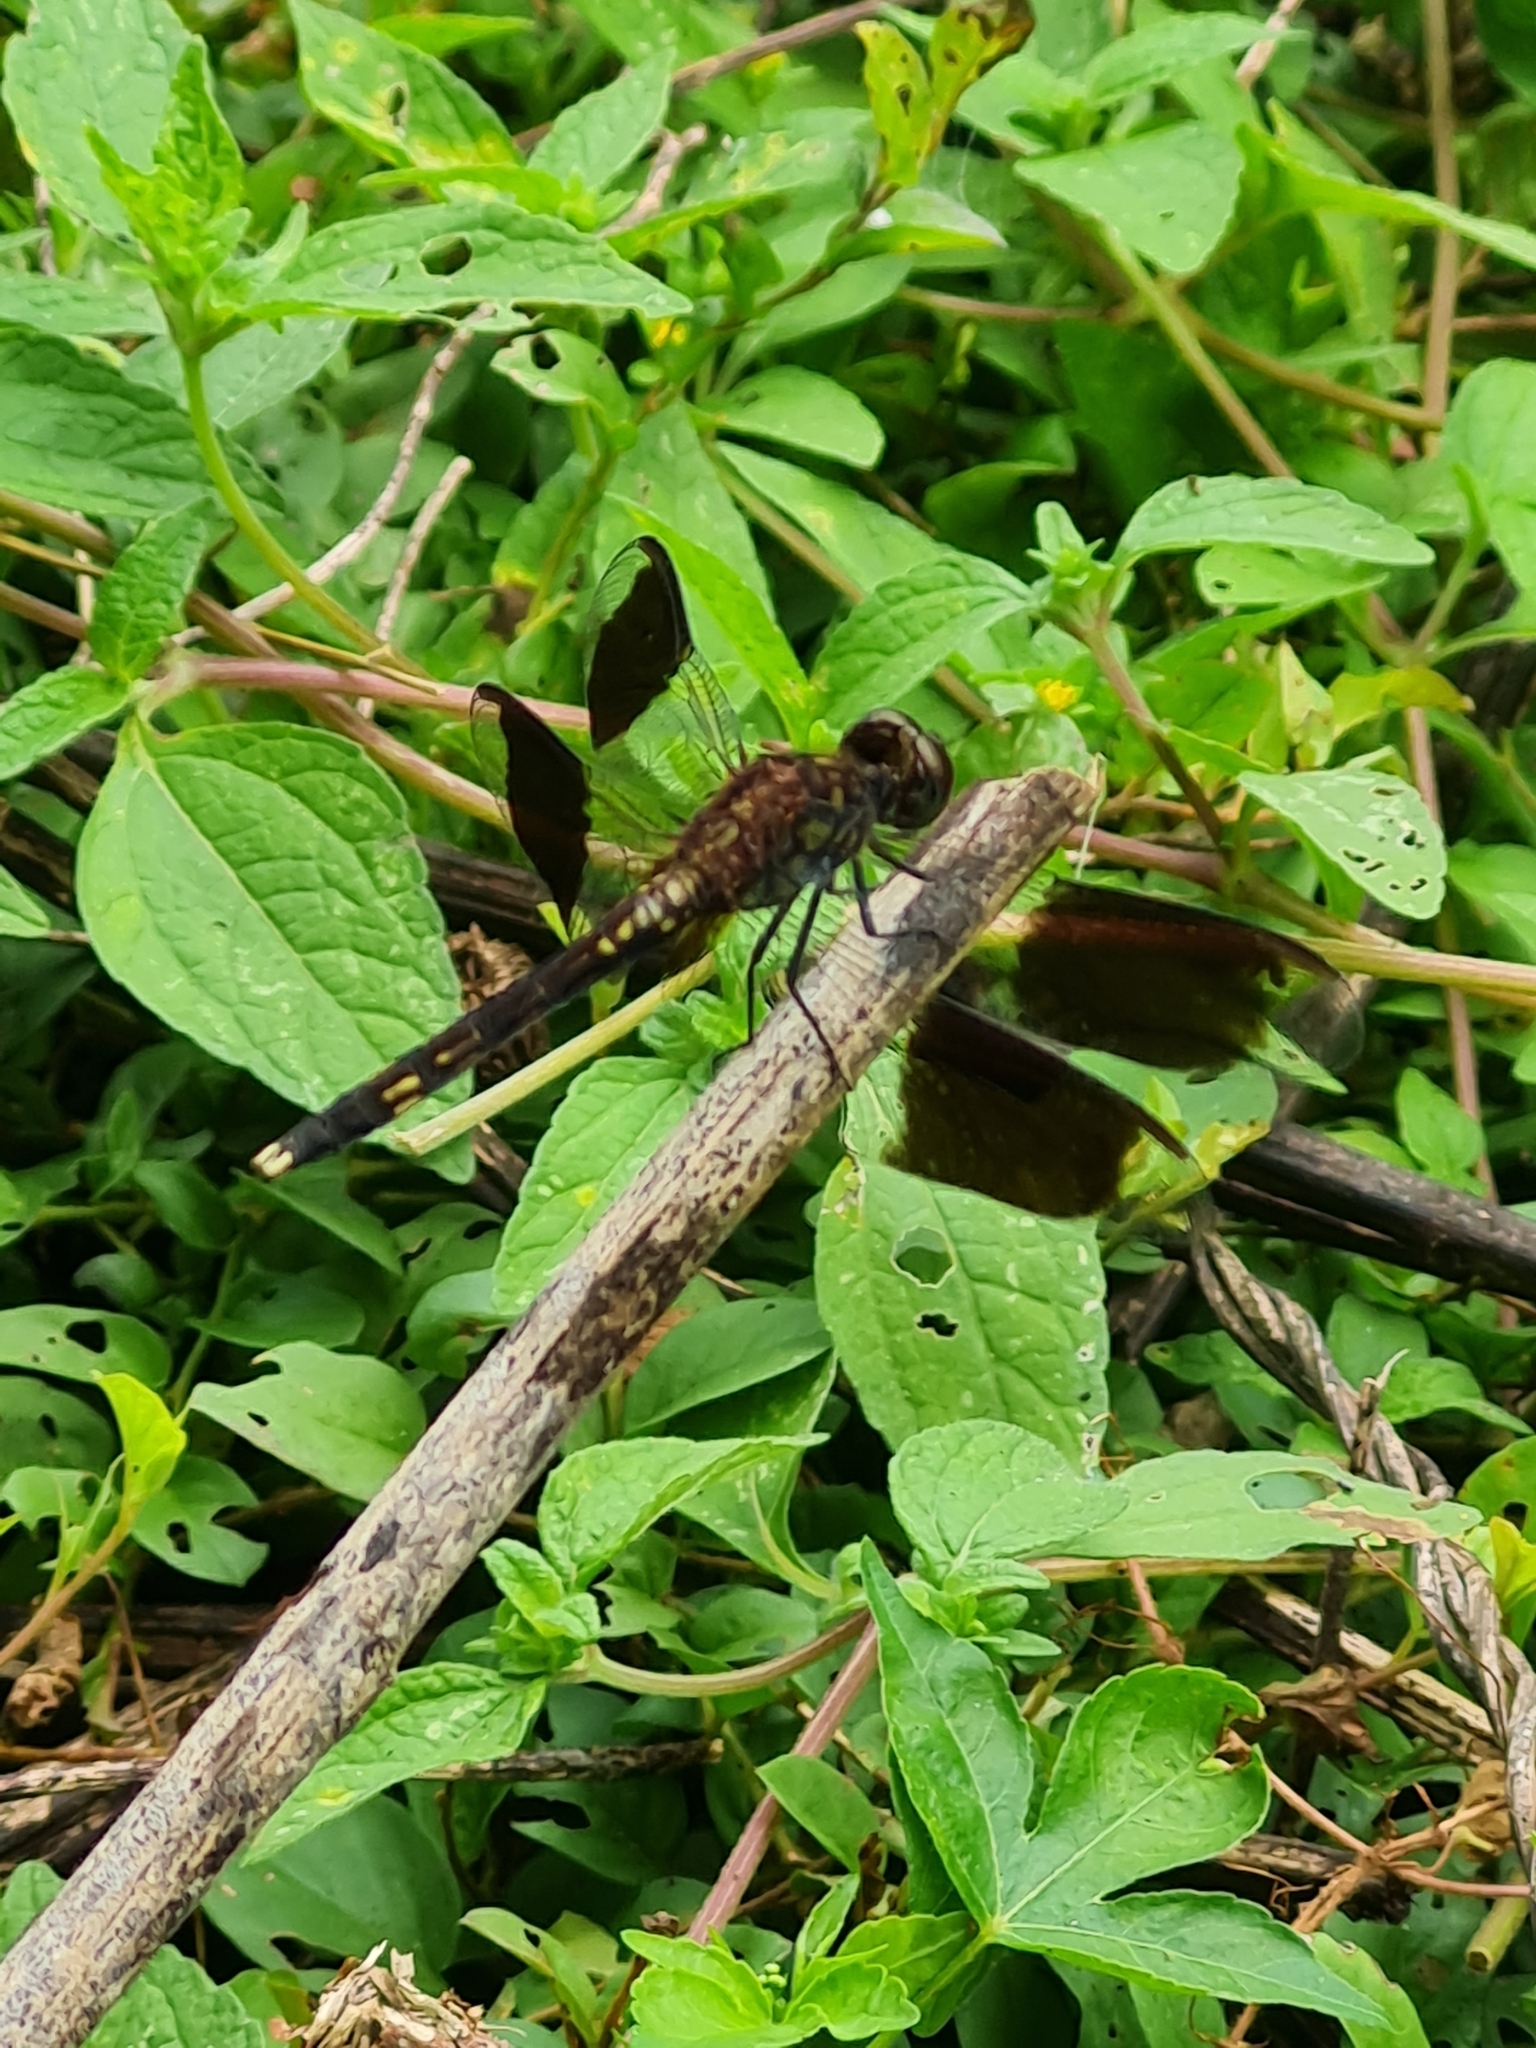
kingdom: Animalia
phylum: Arthropoda
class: Insecta
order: Odonata
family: Libellulidae
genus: Erythrodiplax
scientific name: Erythrodiplax umbrata
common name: Band-winged dragonlet
